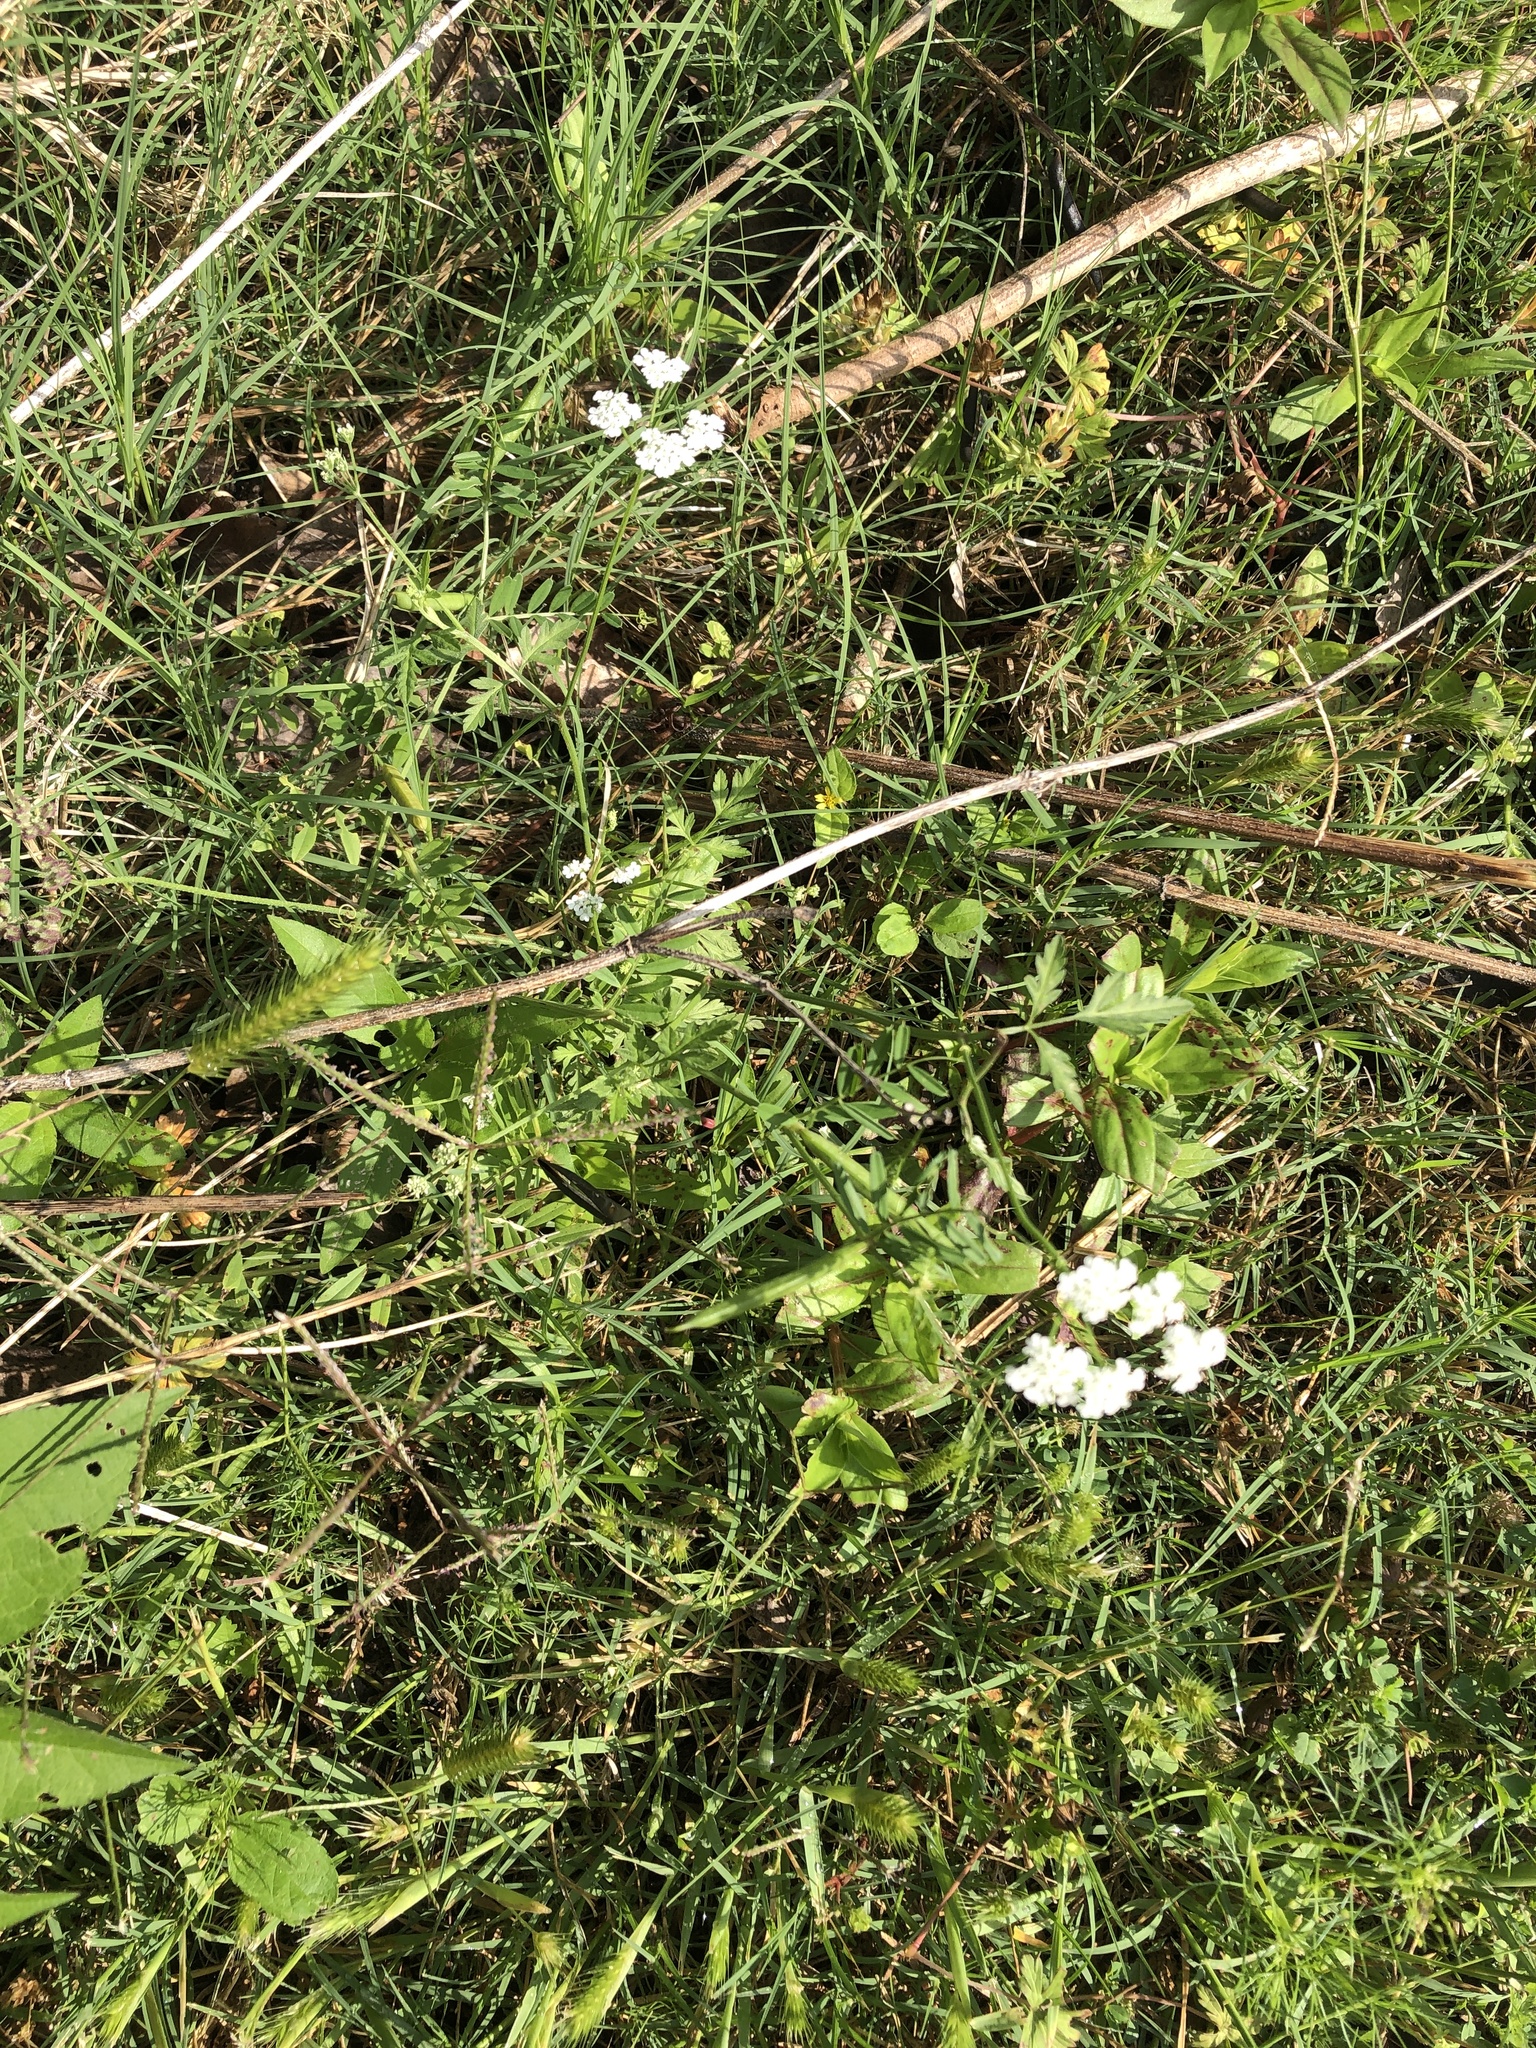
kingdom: Plantae
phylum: Tracheophyta
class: Magnoliopsida
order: Apiales
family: Apiaceae
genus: Torilis
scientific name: Torilis arvensis
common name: Spreading hedge-parsley
